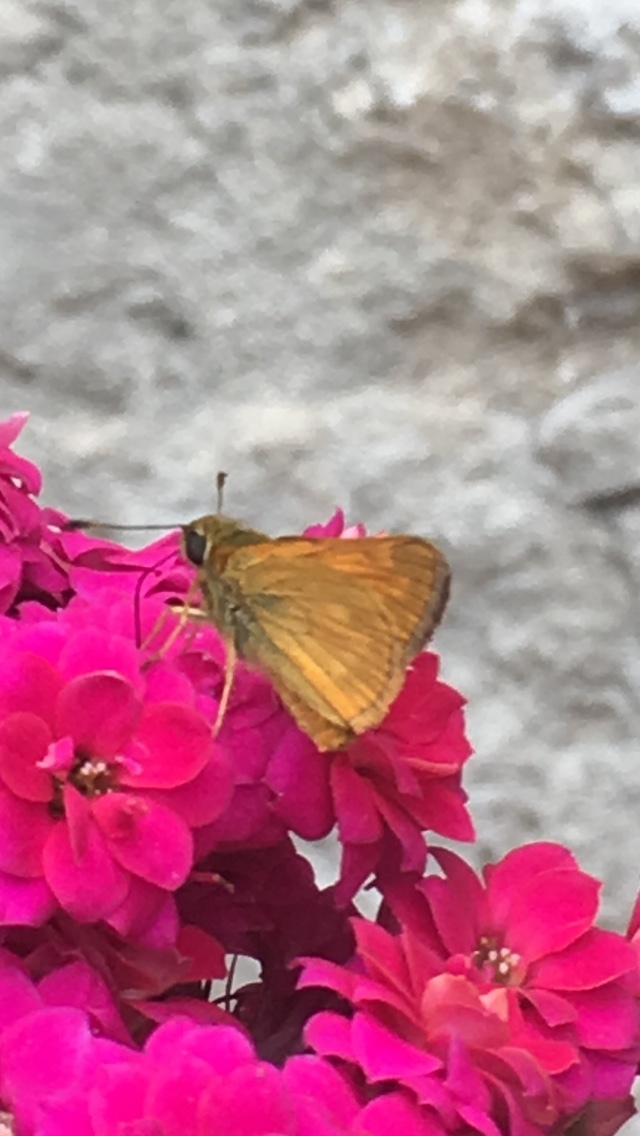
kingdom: Animalia
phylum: Arthropoda
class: Insecta
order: Lepidoptera
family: Hesperiidae
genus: Ochlodes
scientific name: Ochlodes venata
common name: Large skipper
